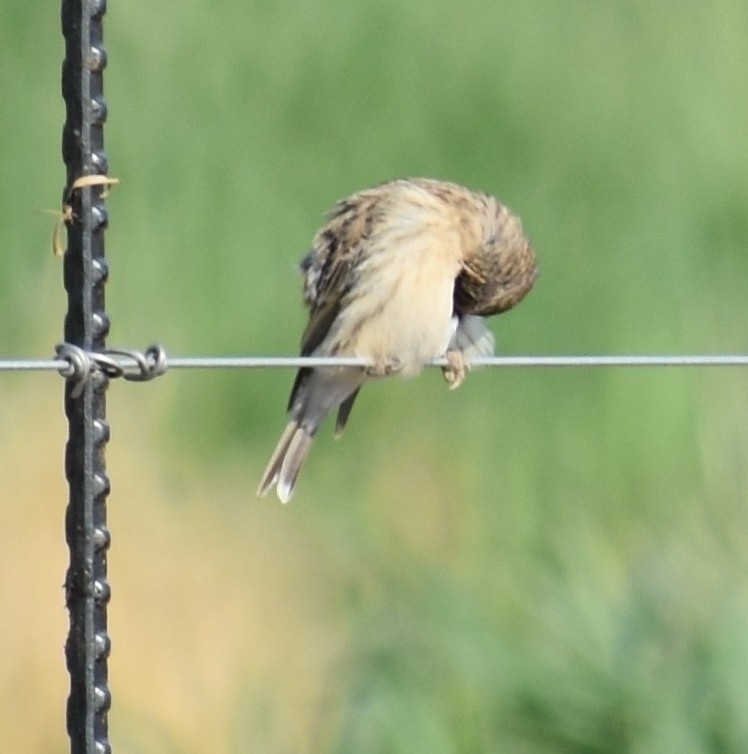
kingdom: Animalia
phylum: Chordata
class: Aves
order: Passeriformes
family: Fringillidae
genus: Crithagra
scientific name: Crithagra atrogularis
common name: Black-throated canary
